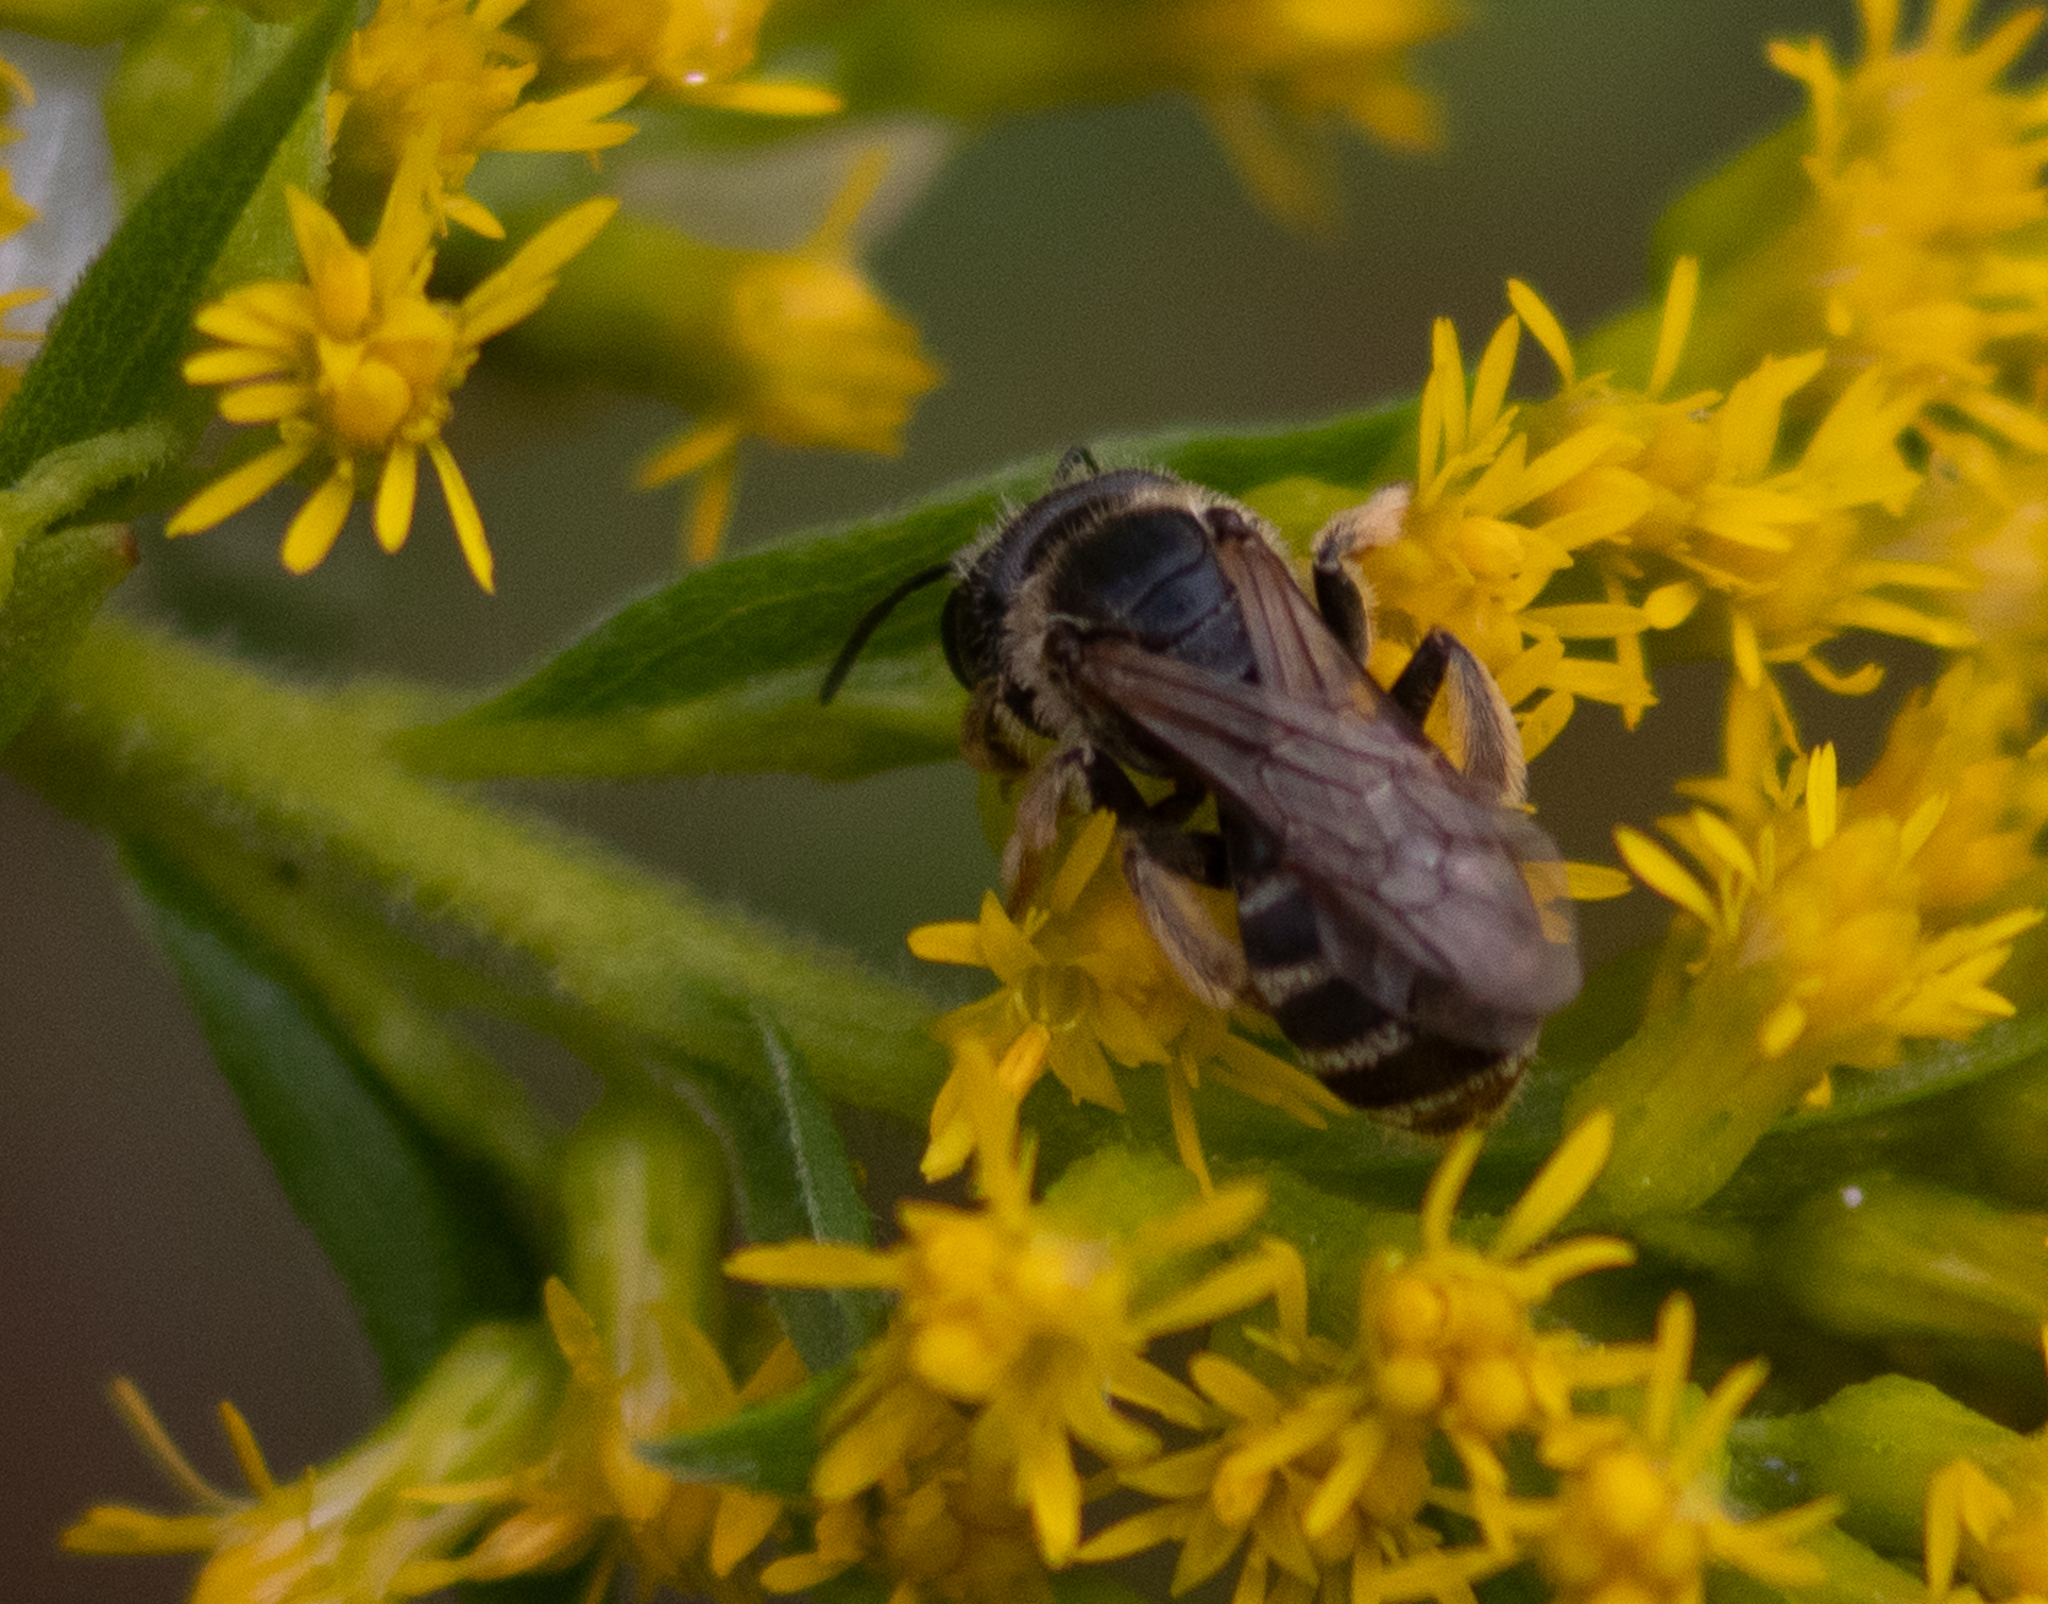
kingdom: Animalia
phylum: Arthropoda
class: Insecta
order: Hymenoptera
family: Halictidae
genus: Halictus
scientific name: Halictus ligatus
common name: Ligated furrow bee
